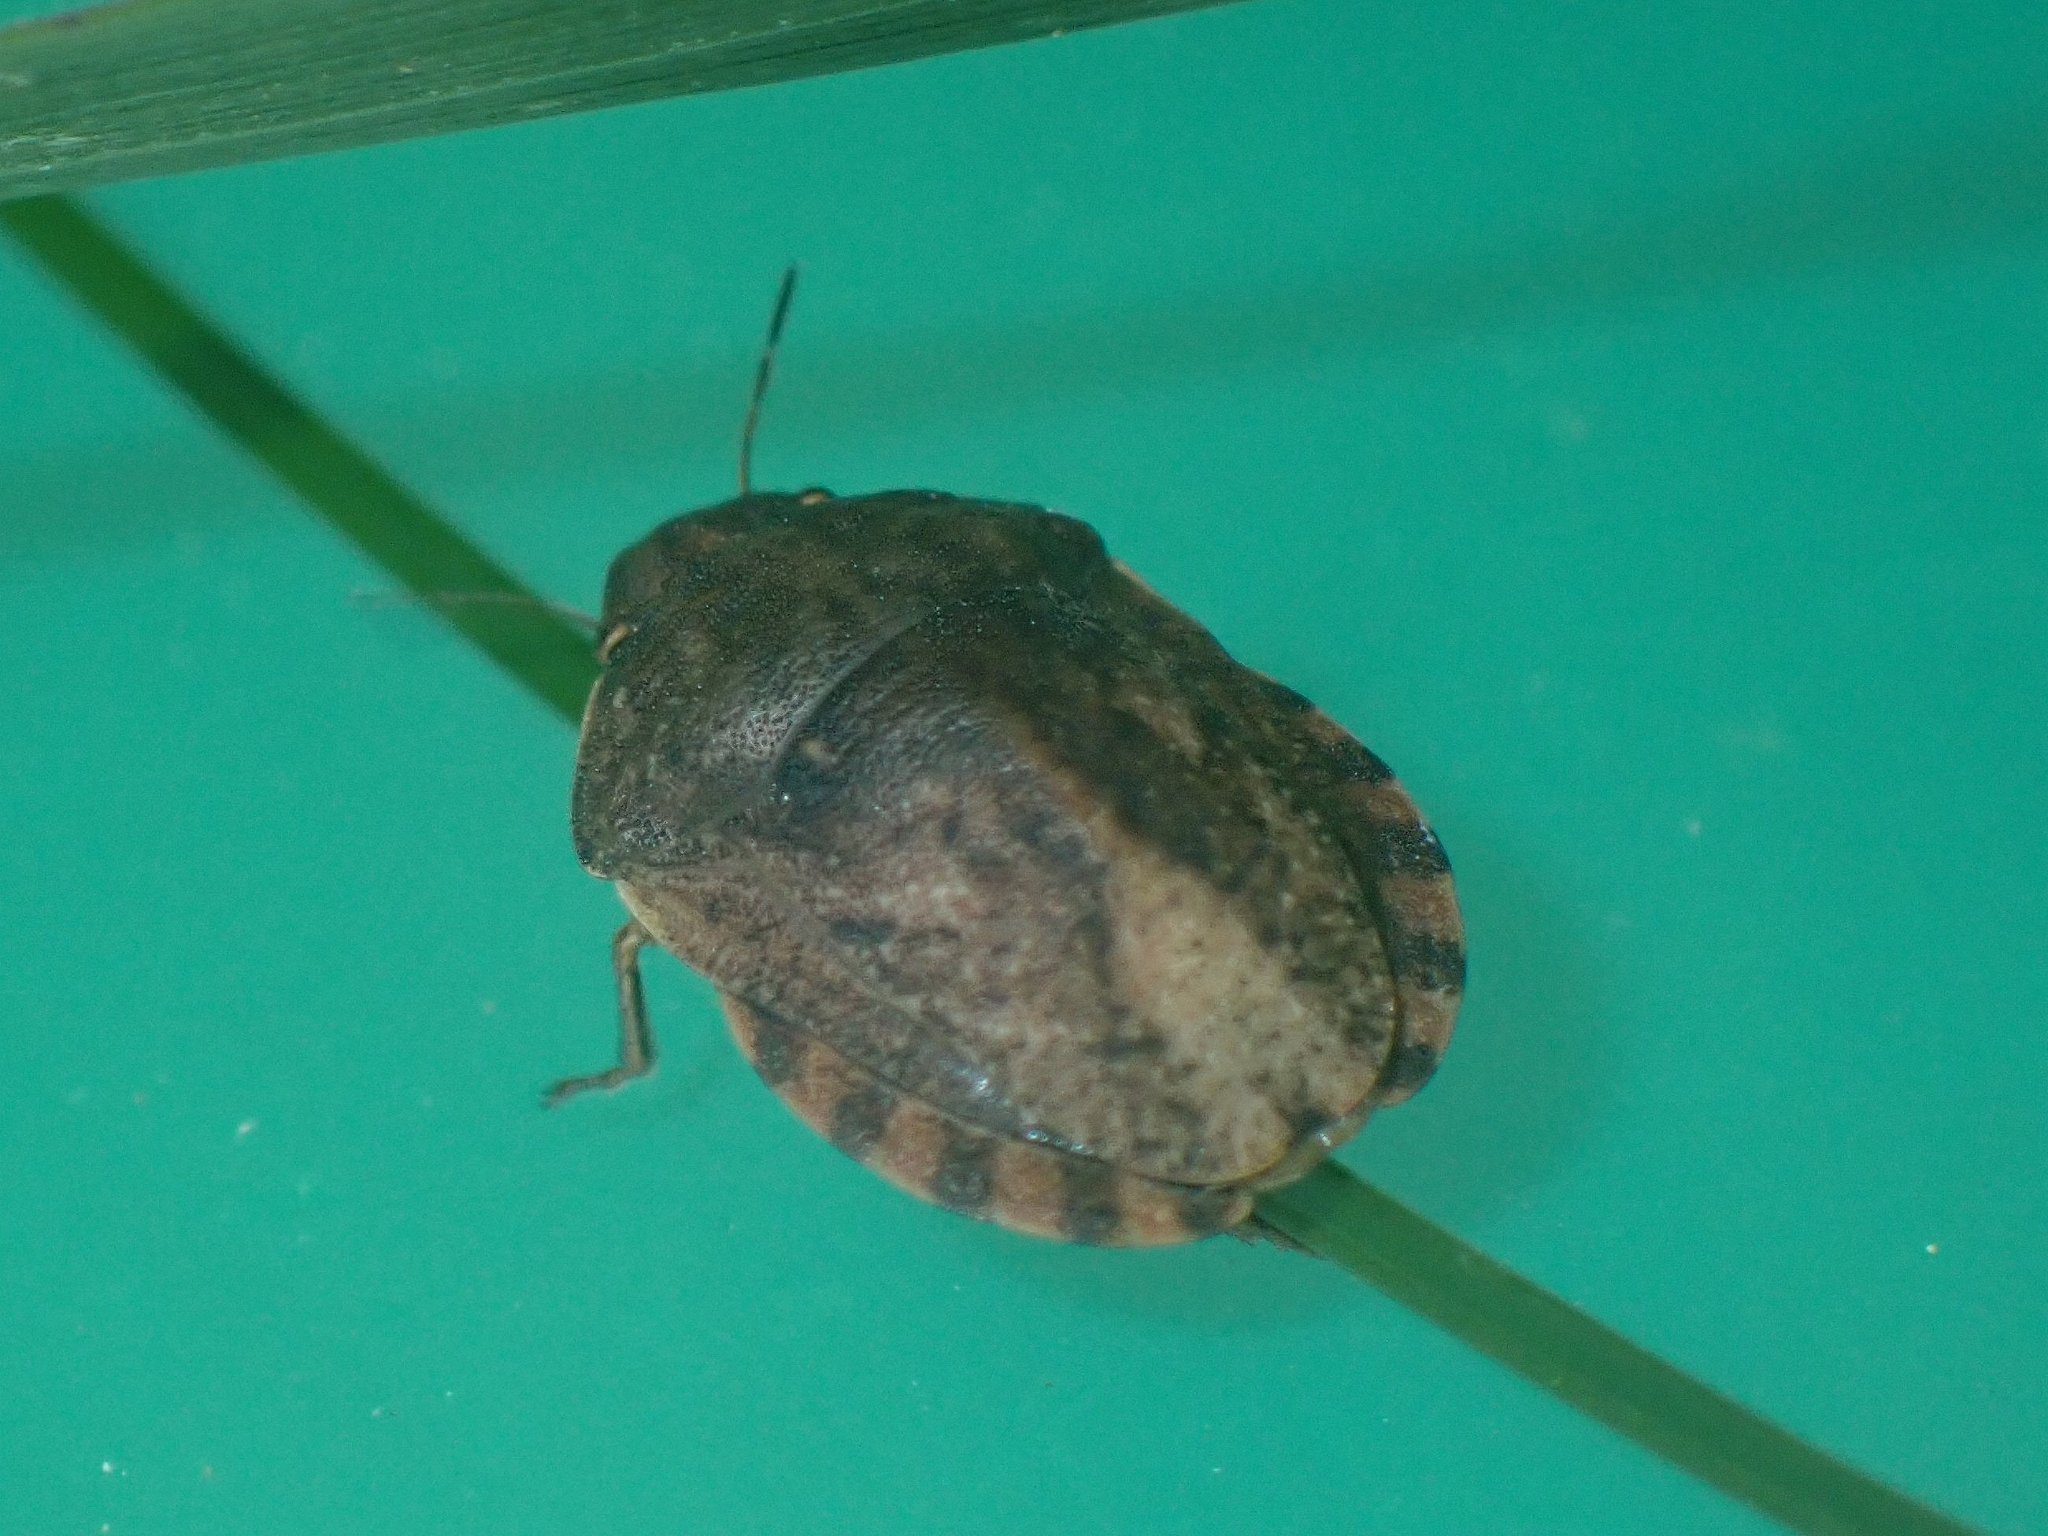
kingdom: Animalia
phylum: Arthropoda
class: Insecta
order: Hemiptera
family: Scutelleridae
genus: Eurygaster
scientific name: Eurygaster testudinaria
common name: Tortoise bug
